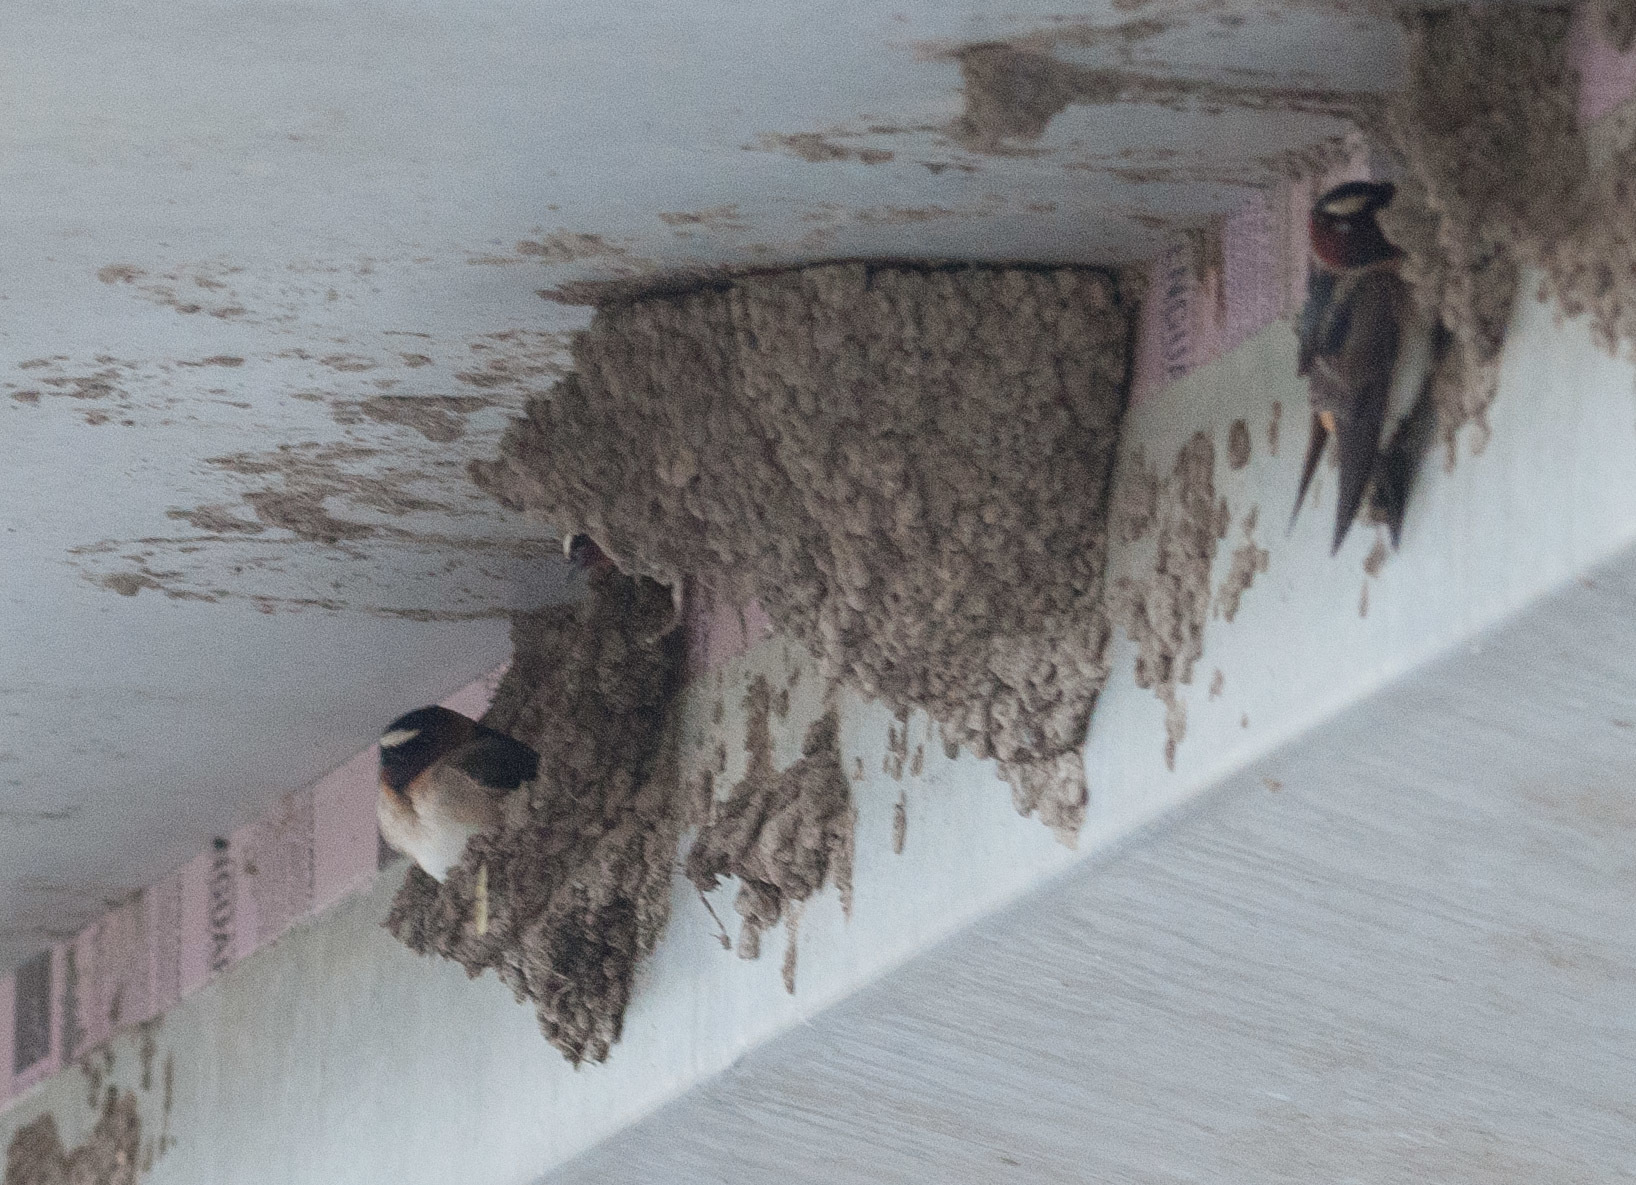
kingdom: Animalia
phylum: Chordata
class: Aves
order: Passeriformes
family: Hirundinidae
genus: Petrochelidon
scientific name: Petrochelidon pyrrhonota
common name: American cliff swallow
